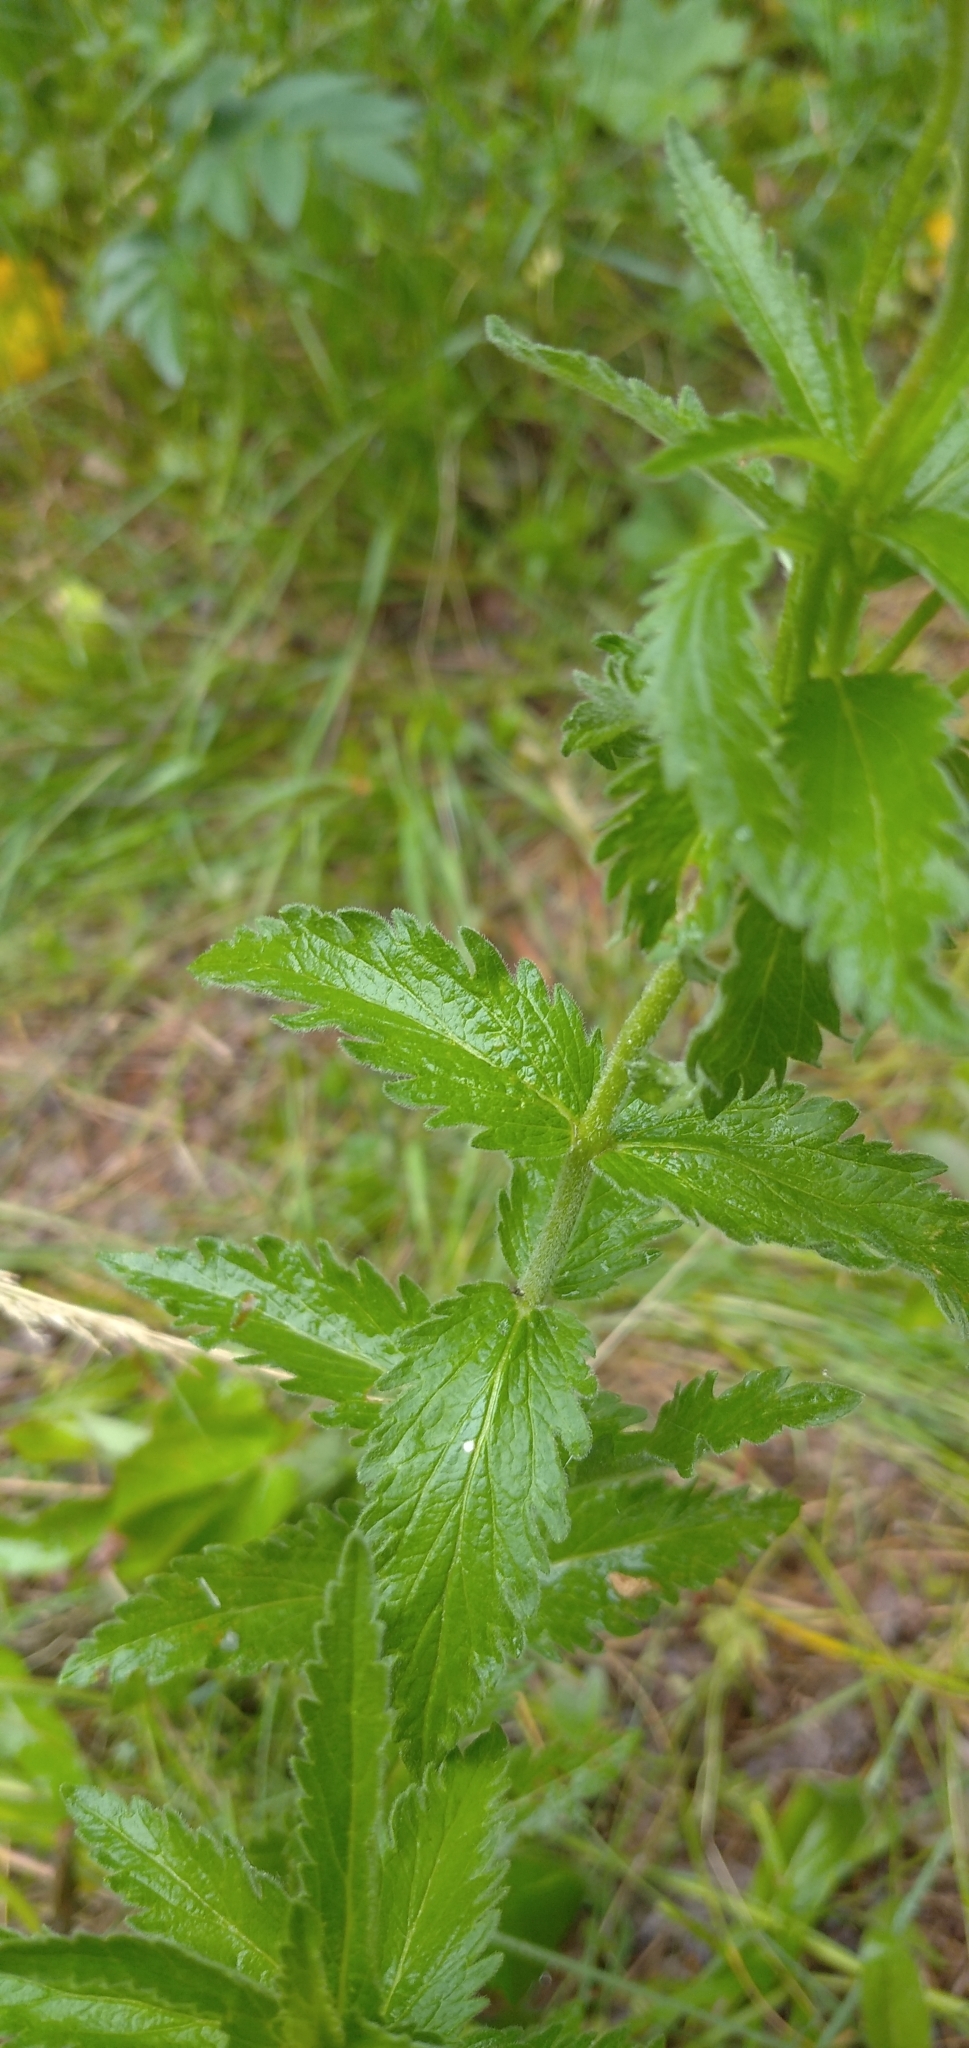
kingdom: Plantae
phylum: Tracheophyta
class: Magnoliopsida
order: Lamiales
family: Plantaginaceae
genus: Veronica
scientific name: Veronica teucrium
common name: Large speedwell
